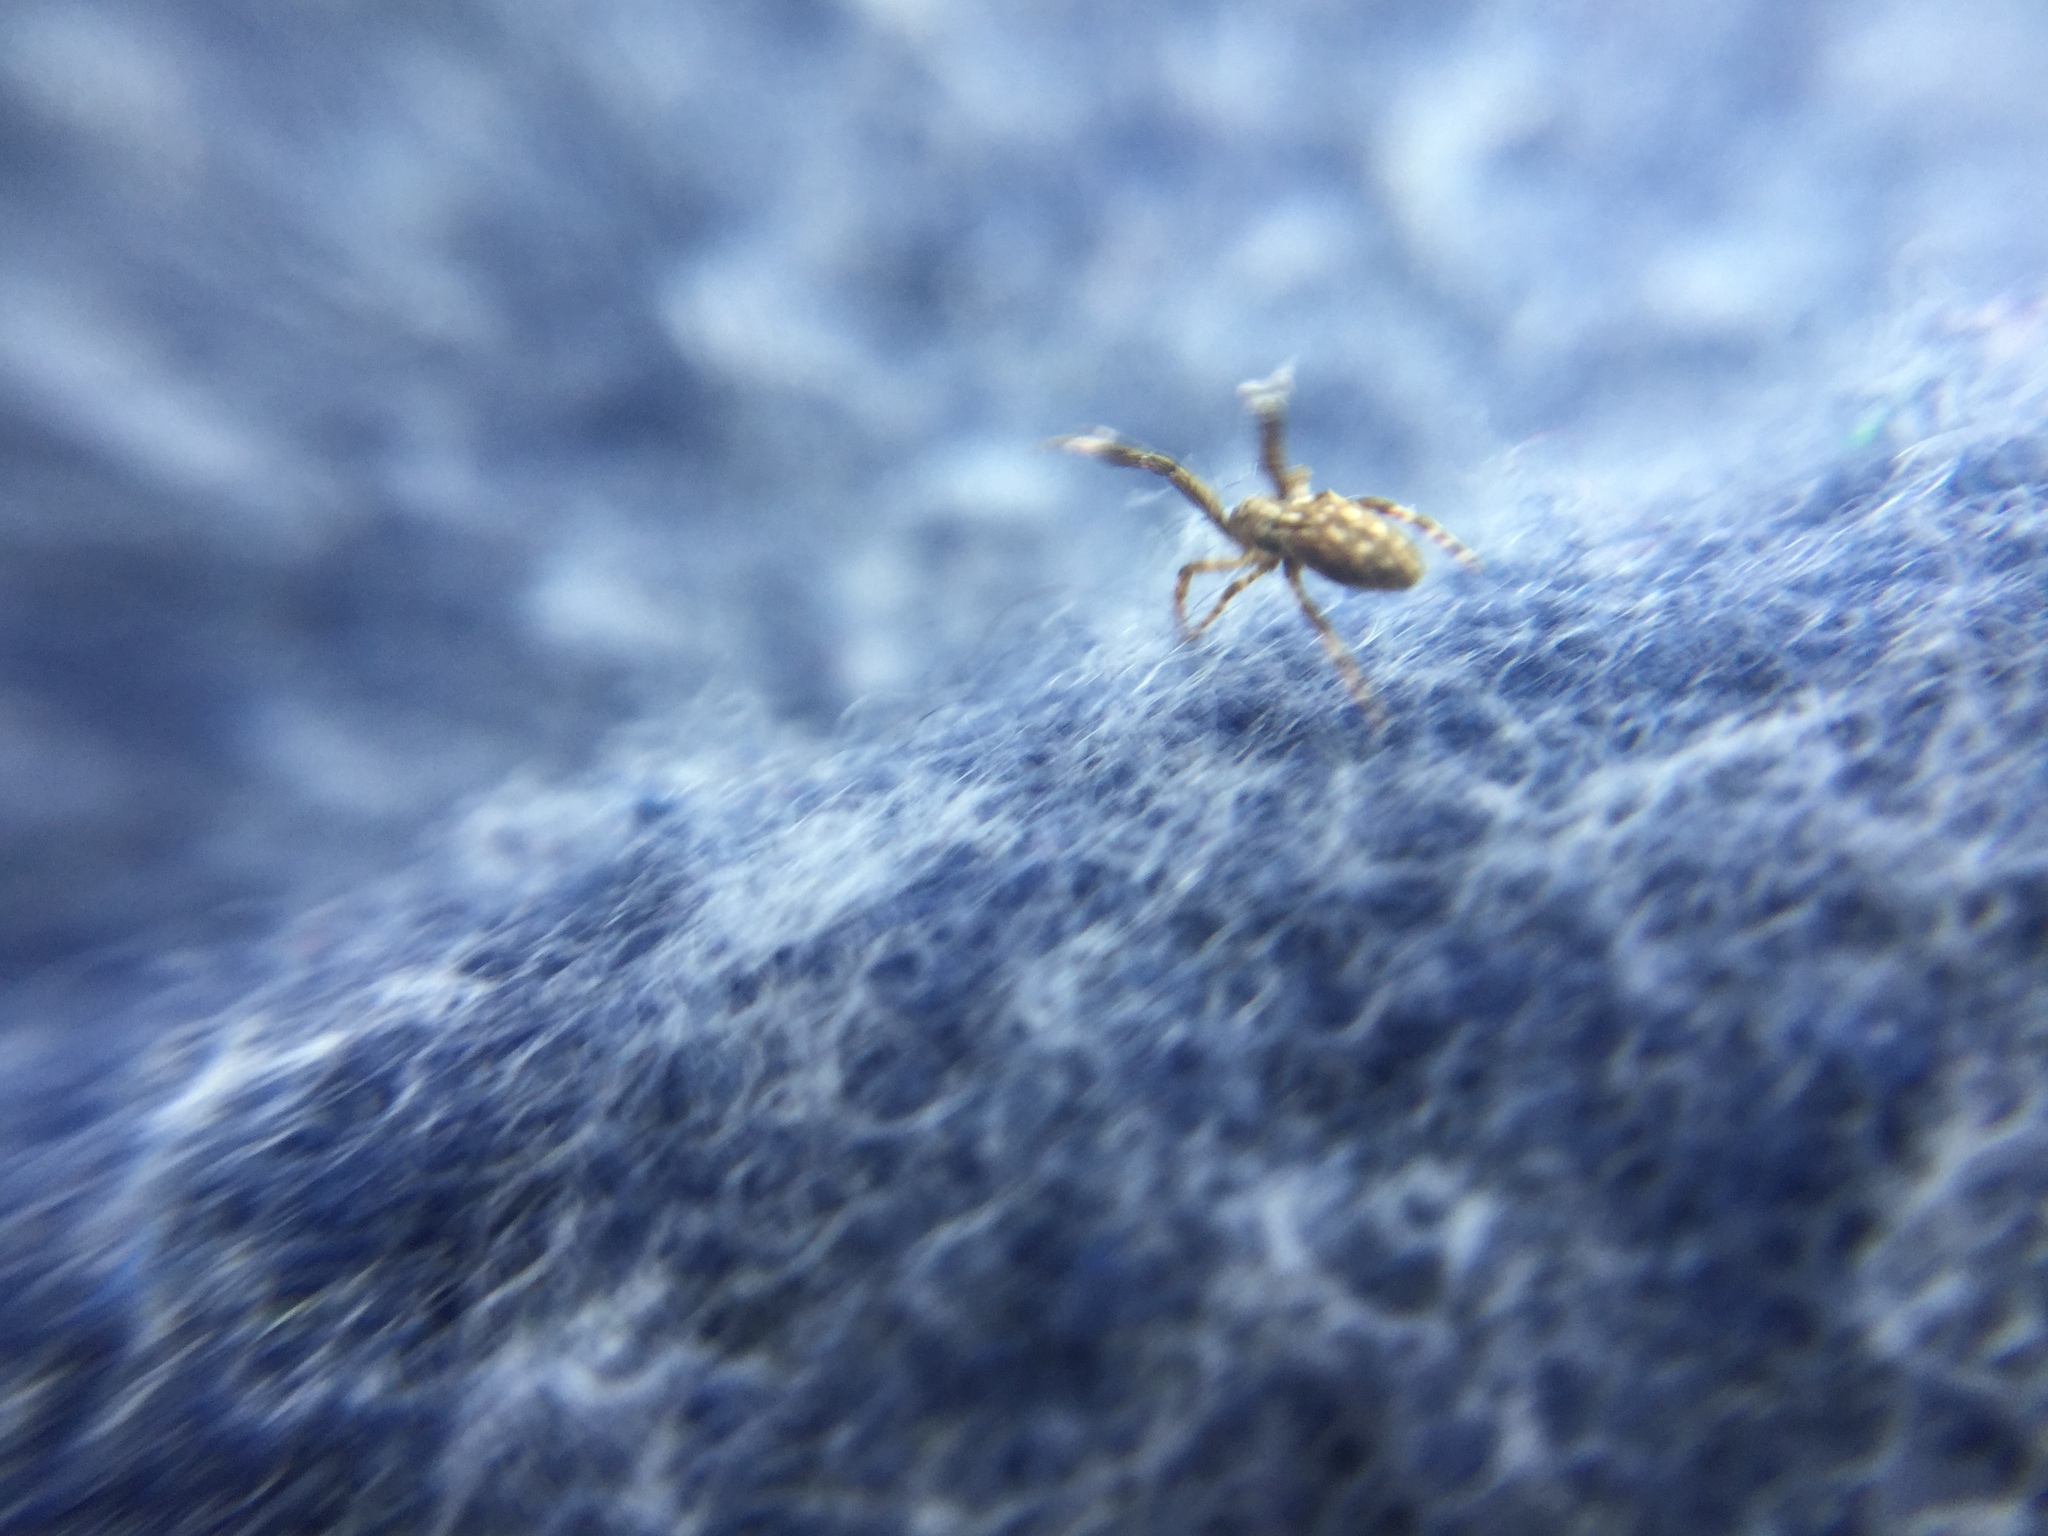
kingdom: Animalia
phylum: Arthropoda
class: Arachnida
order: Araneae
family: Uloboridae
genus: Uloborus
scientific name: Uloborus glomosus
